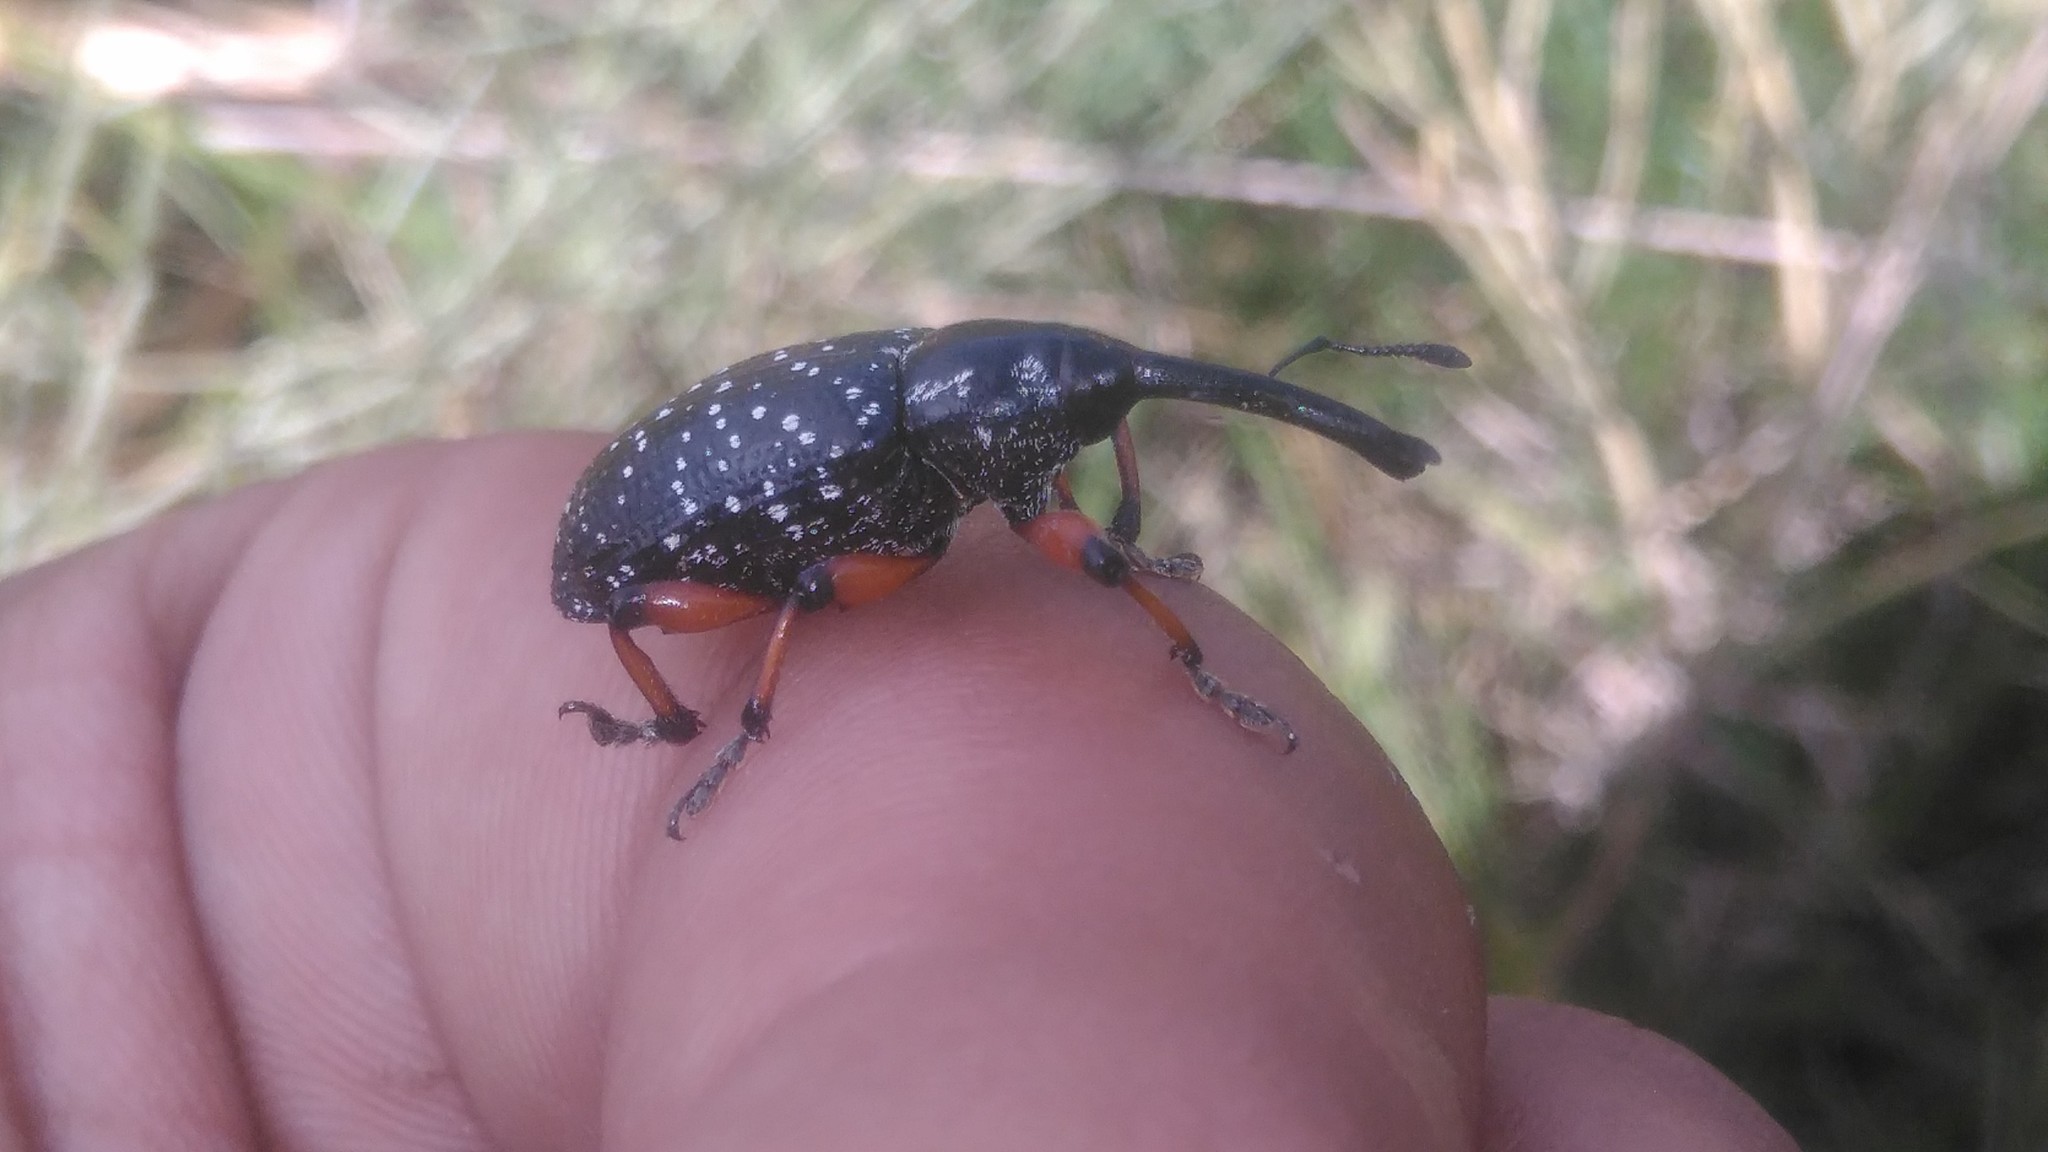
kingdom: Animalia
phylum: Arthropoda
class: Insecta
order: Coleoptera
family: Curculionidae
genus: Heilipodus
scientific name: Heilipodus erythropus
